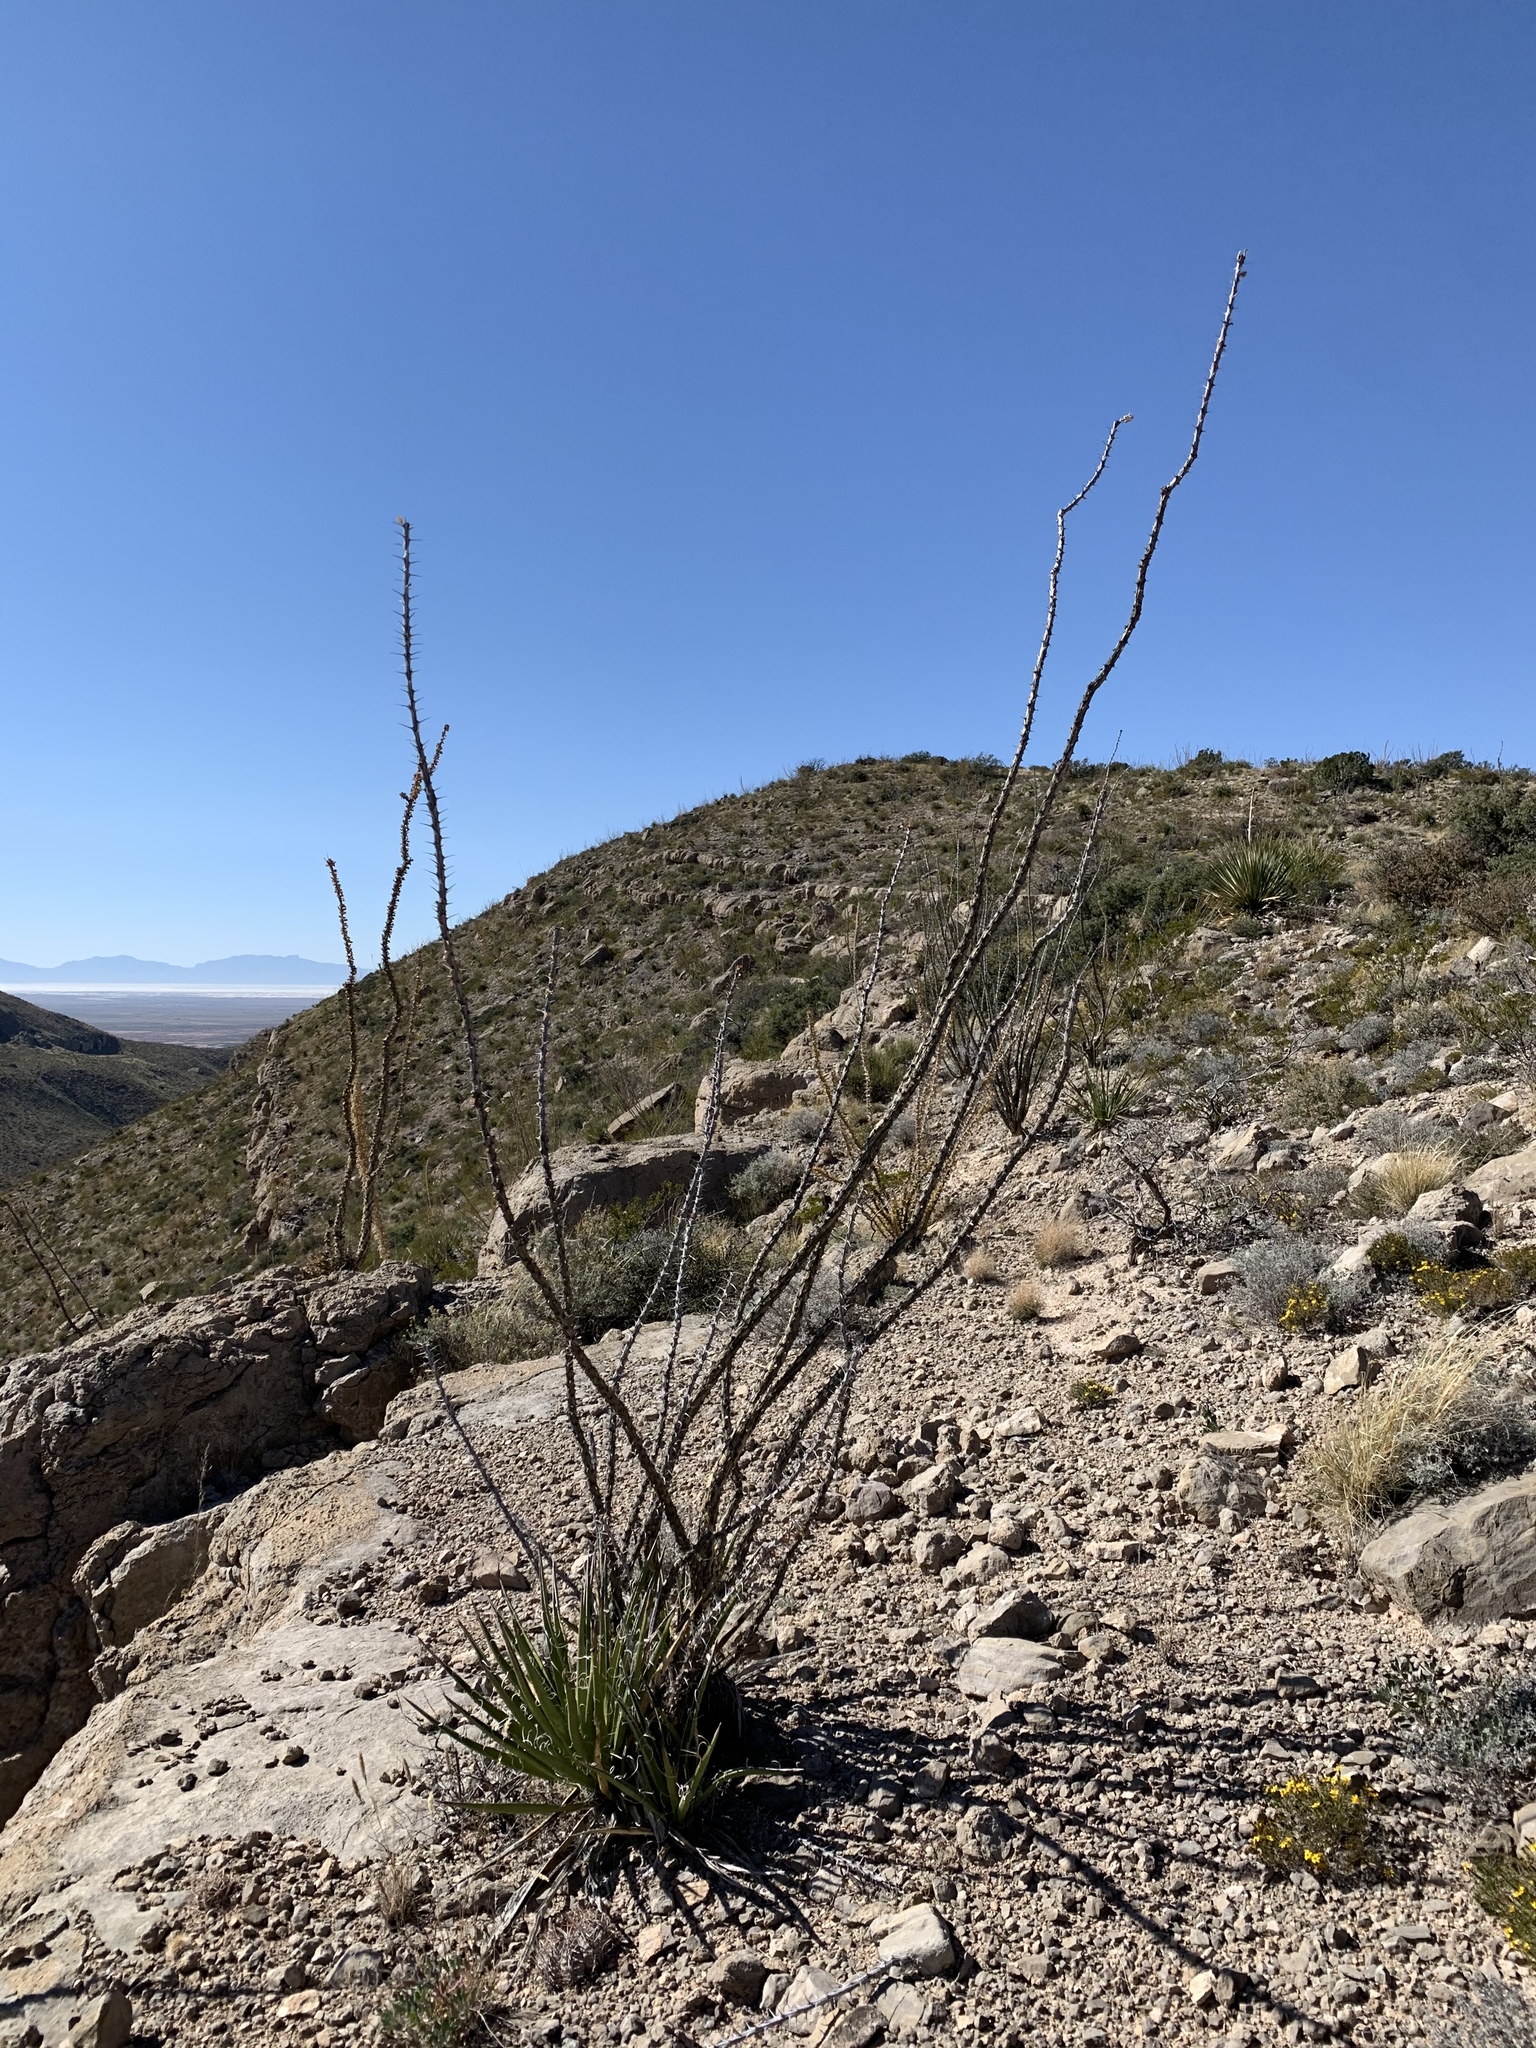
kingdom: Plantae
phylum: Tracheophyta
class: Magnoliopsida
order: Ericales
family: Fouquieriaceae
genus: Fouquieria
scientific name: Fouquieria splendens
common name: Vine-cactus
